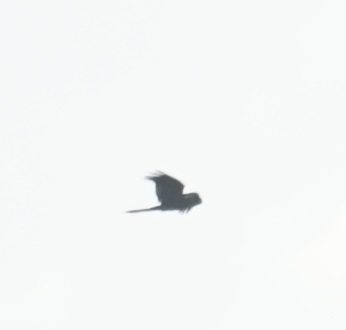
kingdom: Animalia
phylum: Chordata
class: Aves
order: Psittaciformes
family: Cacatuidae
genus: Zanda
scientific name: Zanda funerea
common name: Yellow-tailed black-cockatoo
